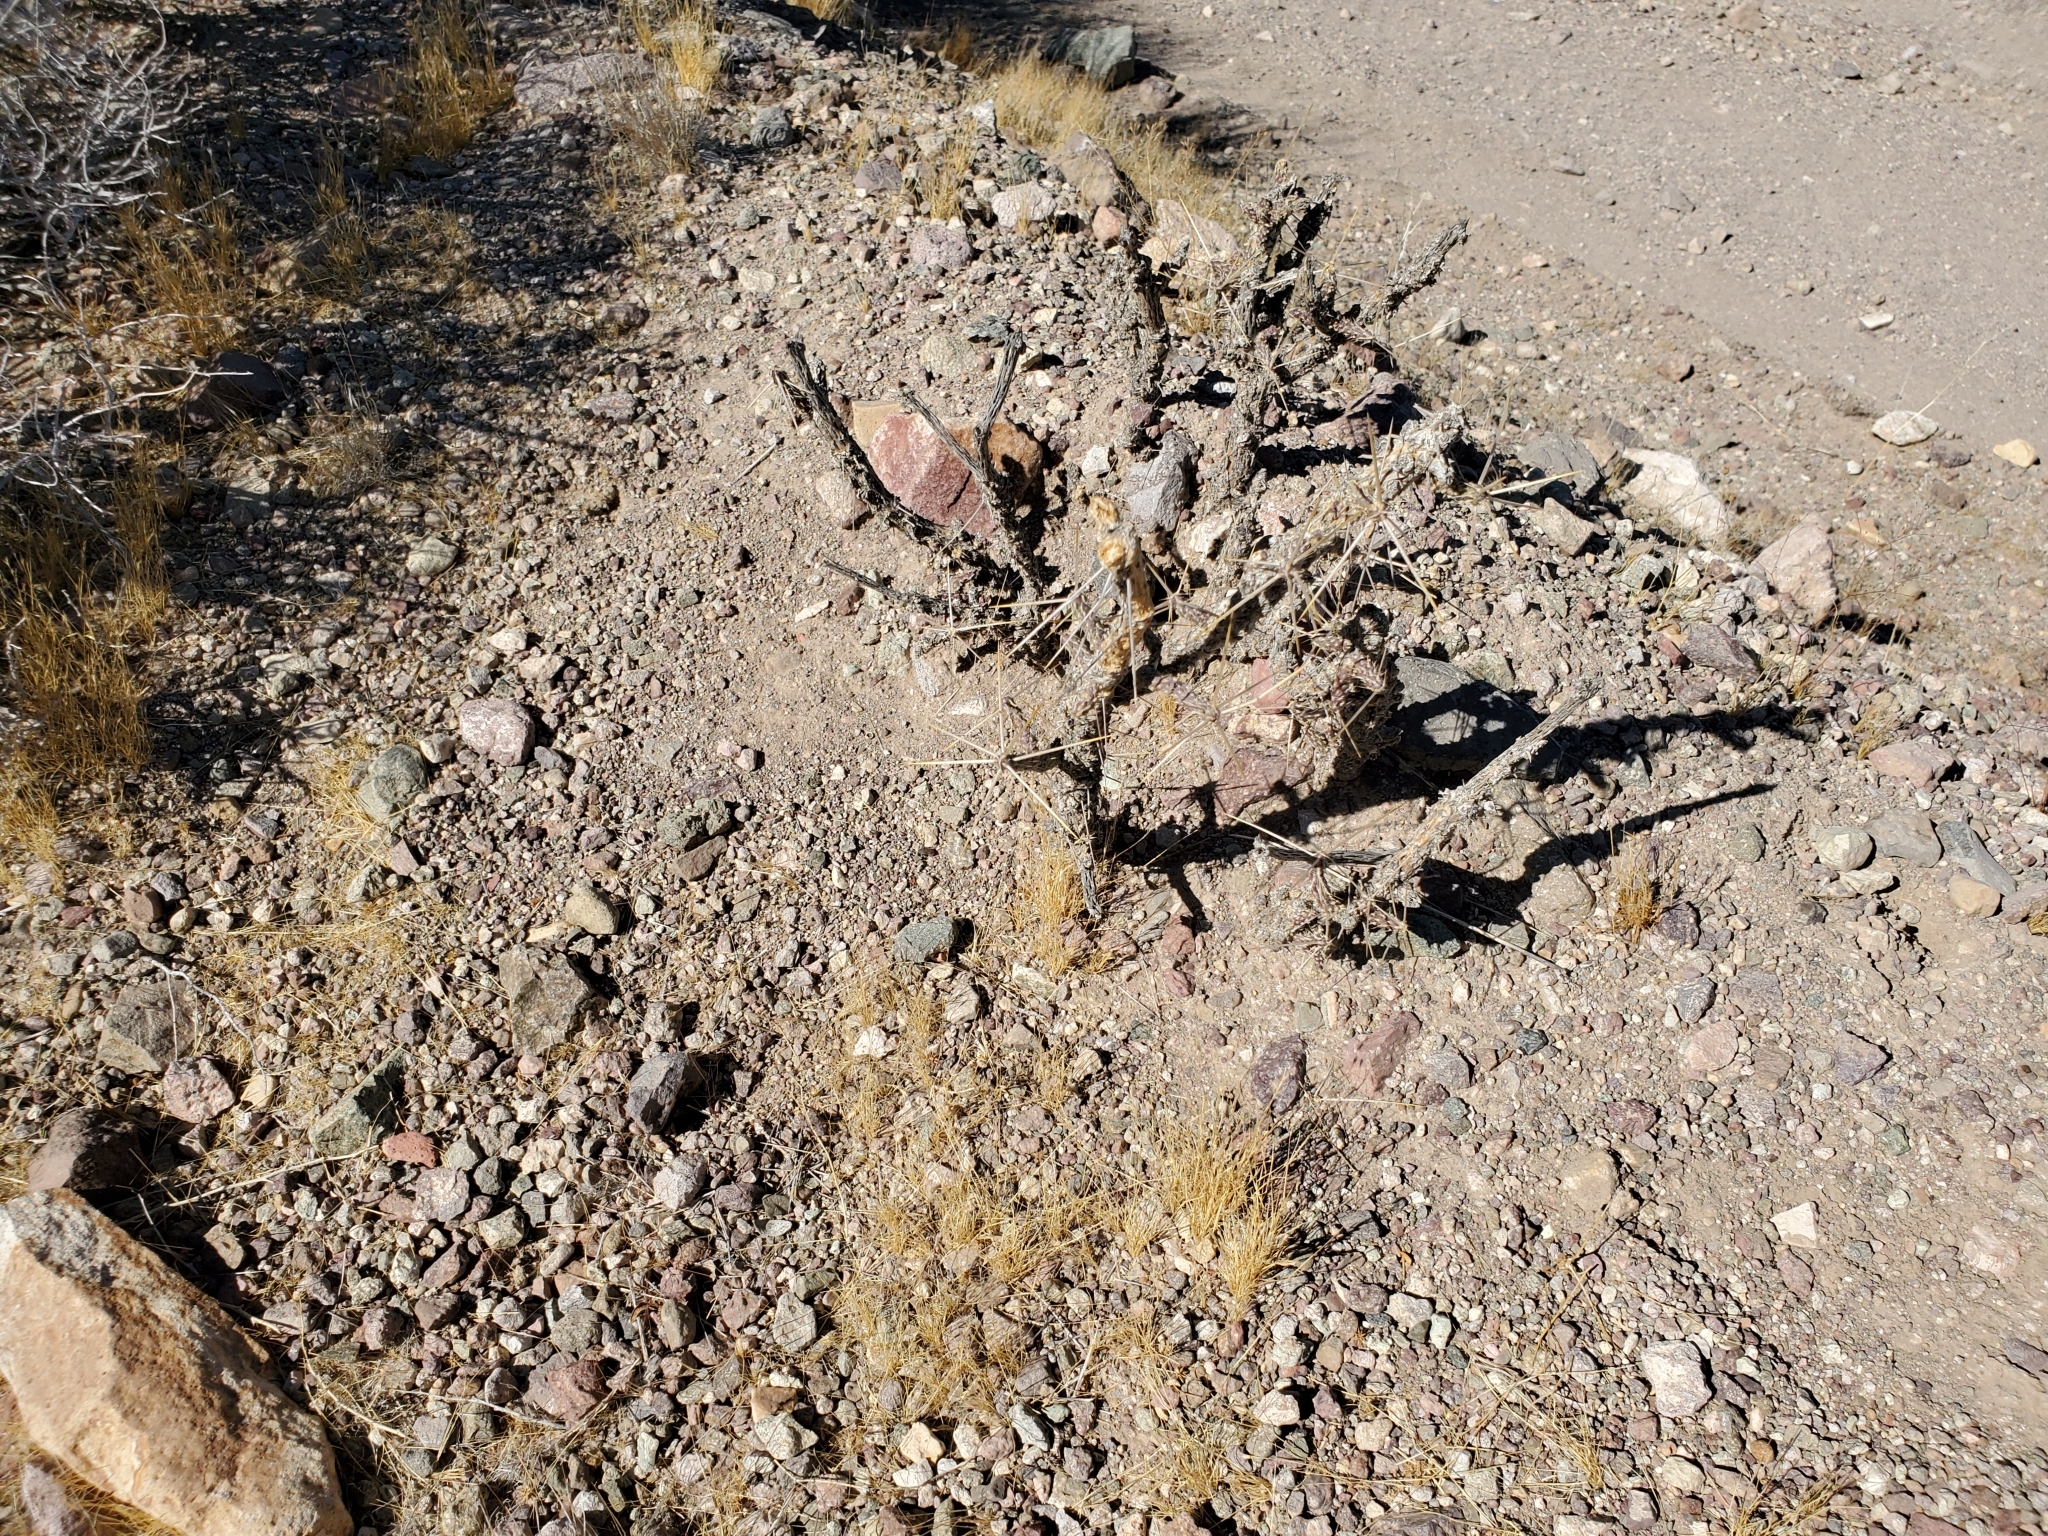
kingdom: Plantae
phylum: Tracheophyta
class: Magnoliopsida
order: Caryophyllales
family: Cactaceae
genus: Cylindropuntia
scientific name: Cylindropuntia ramosissima
